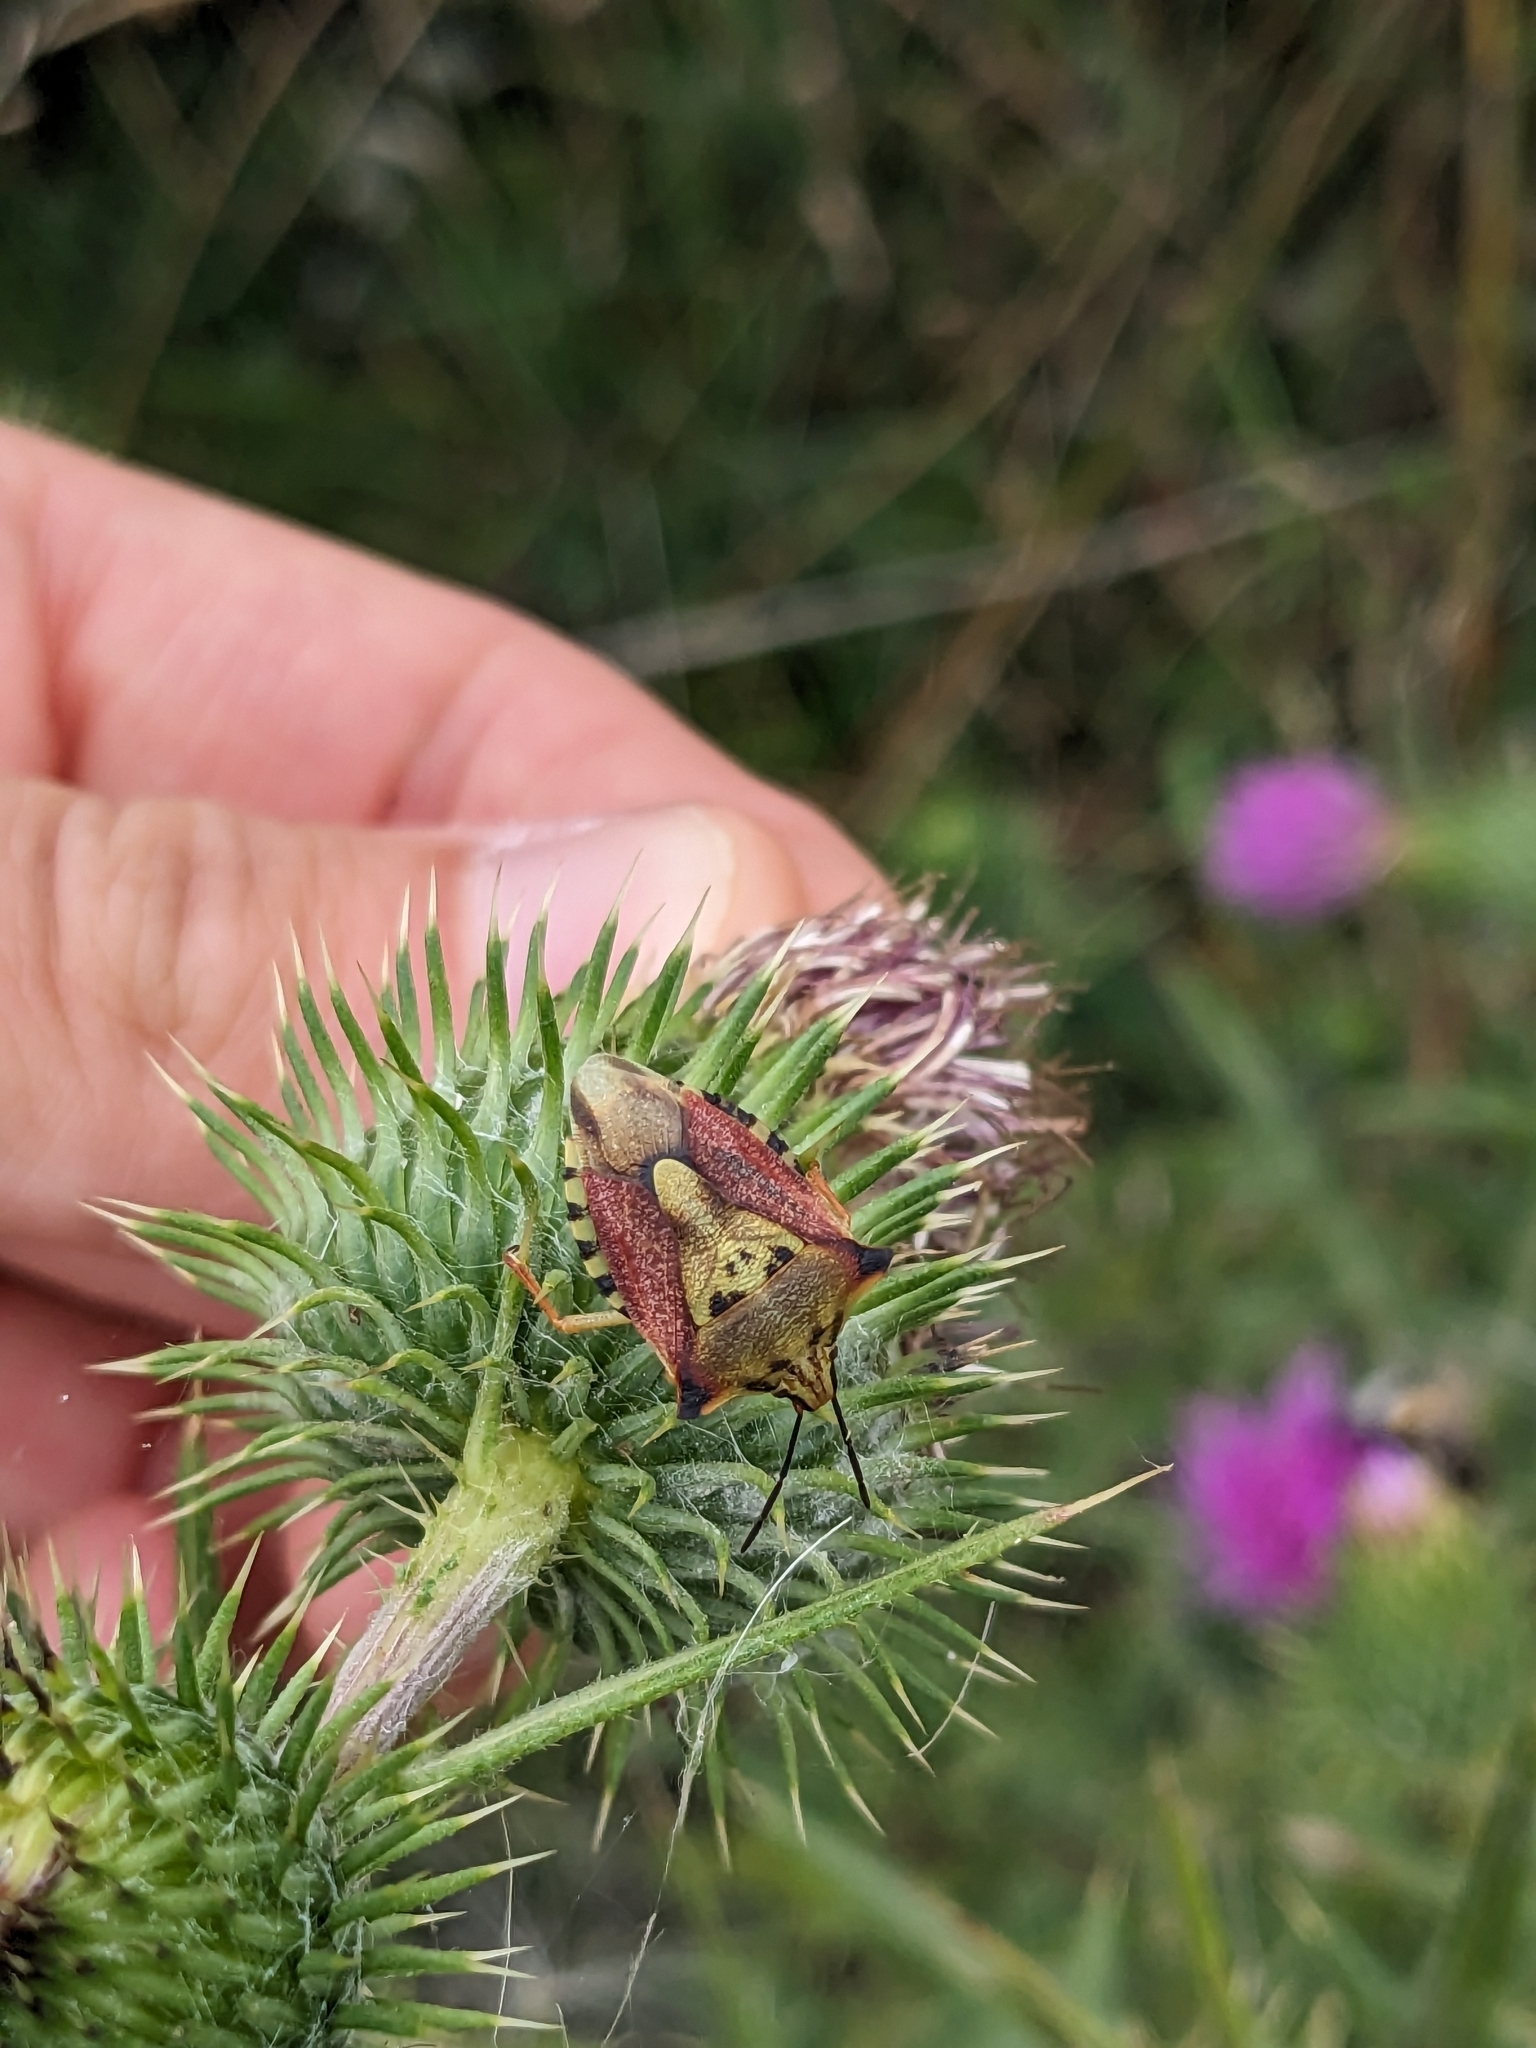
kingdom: Animalia
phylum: Arthropoda
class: Insecta
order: Hemiptera
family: Pentatomidae
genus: Carpocoris
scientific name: Carpocoris mediterraneus
